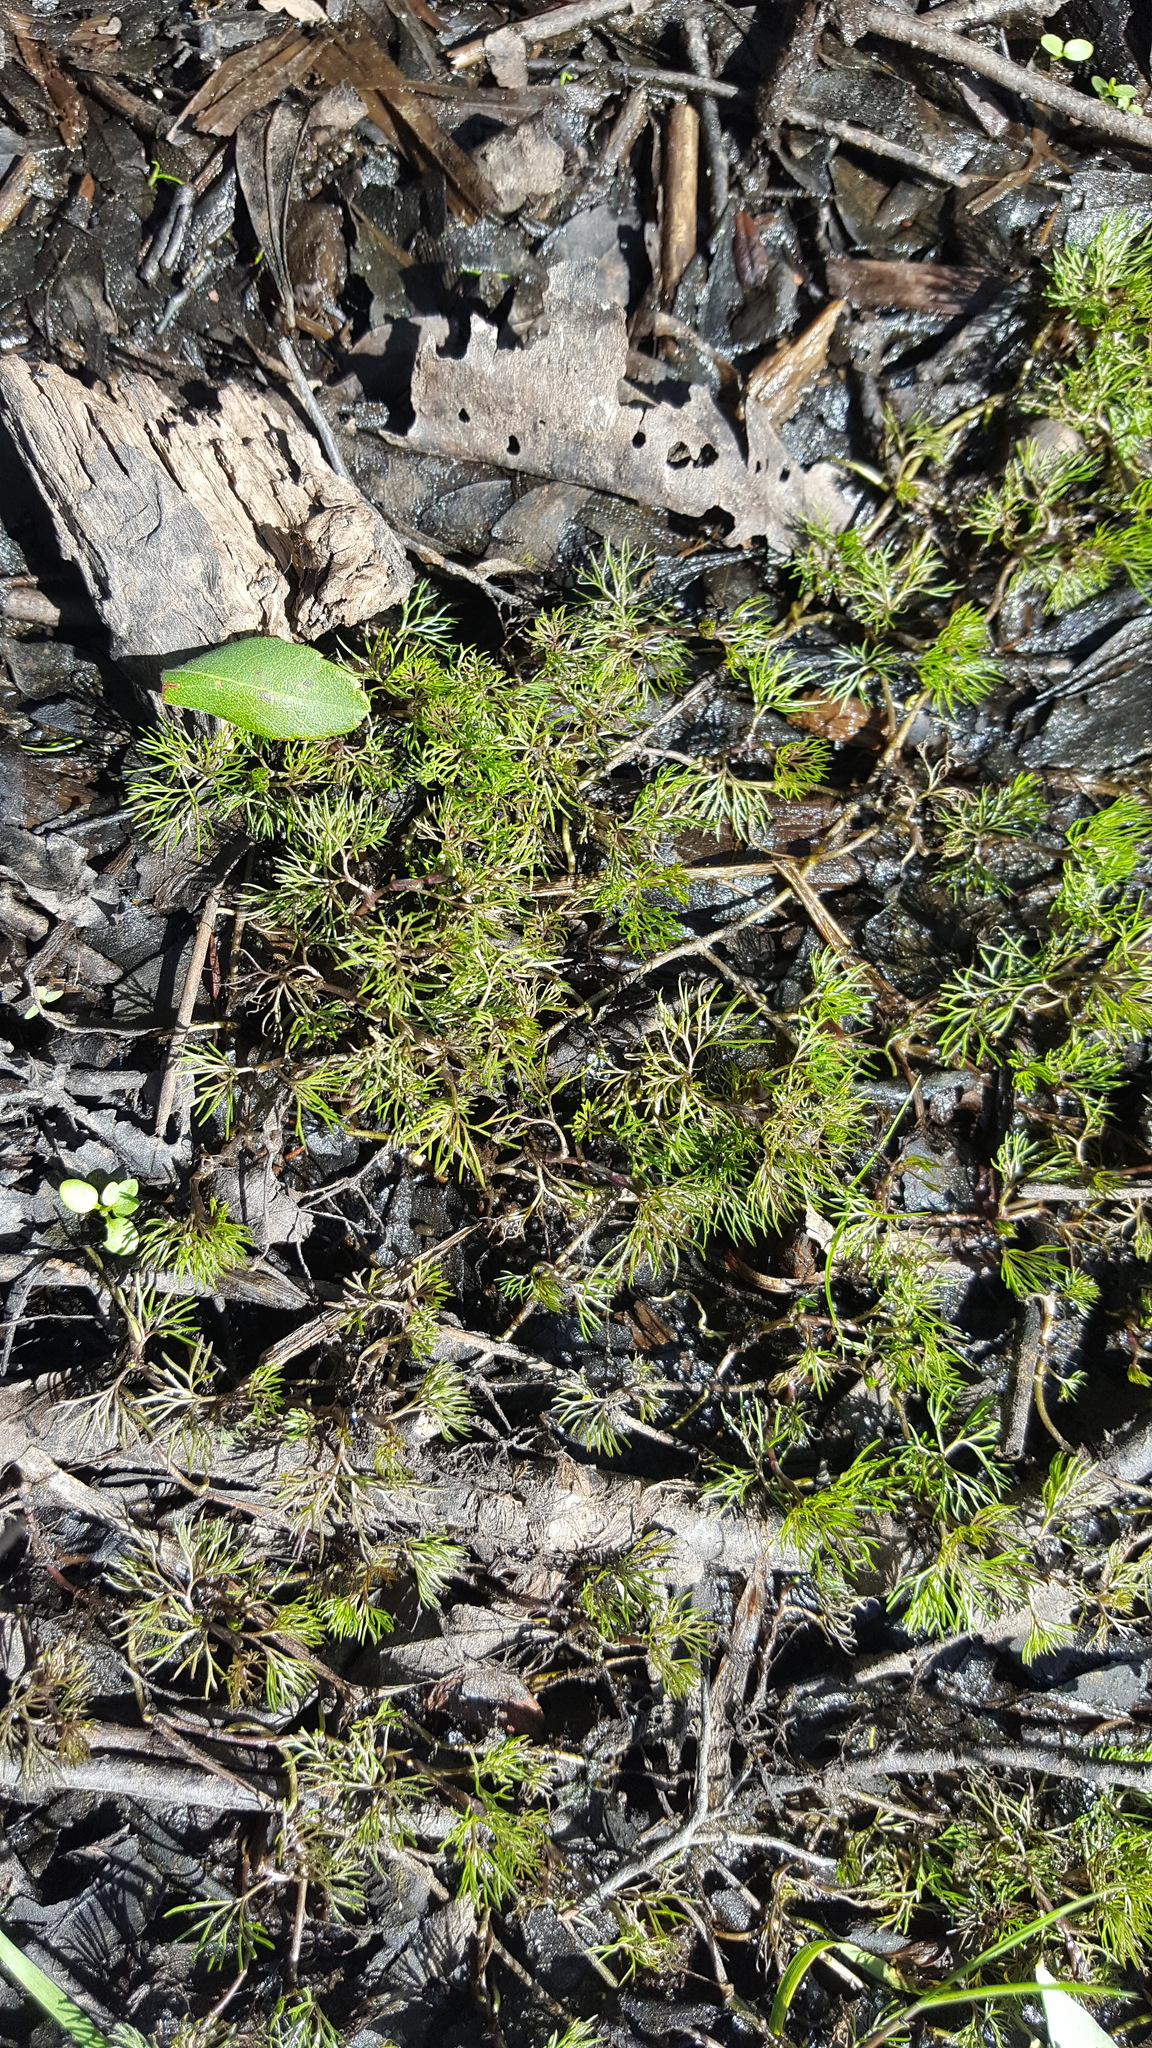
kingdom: Plantae
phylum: Tracheophyta
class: Magnoliopsida
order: Ranunculales
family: Ranunculaceae
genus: Ranunculus
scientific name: Ranunculus aquatilis
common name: Common water-crowfoot
